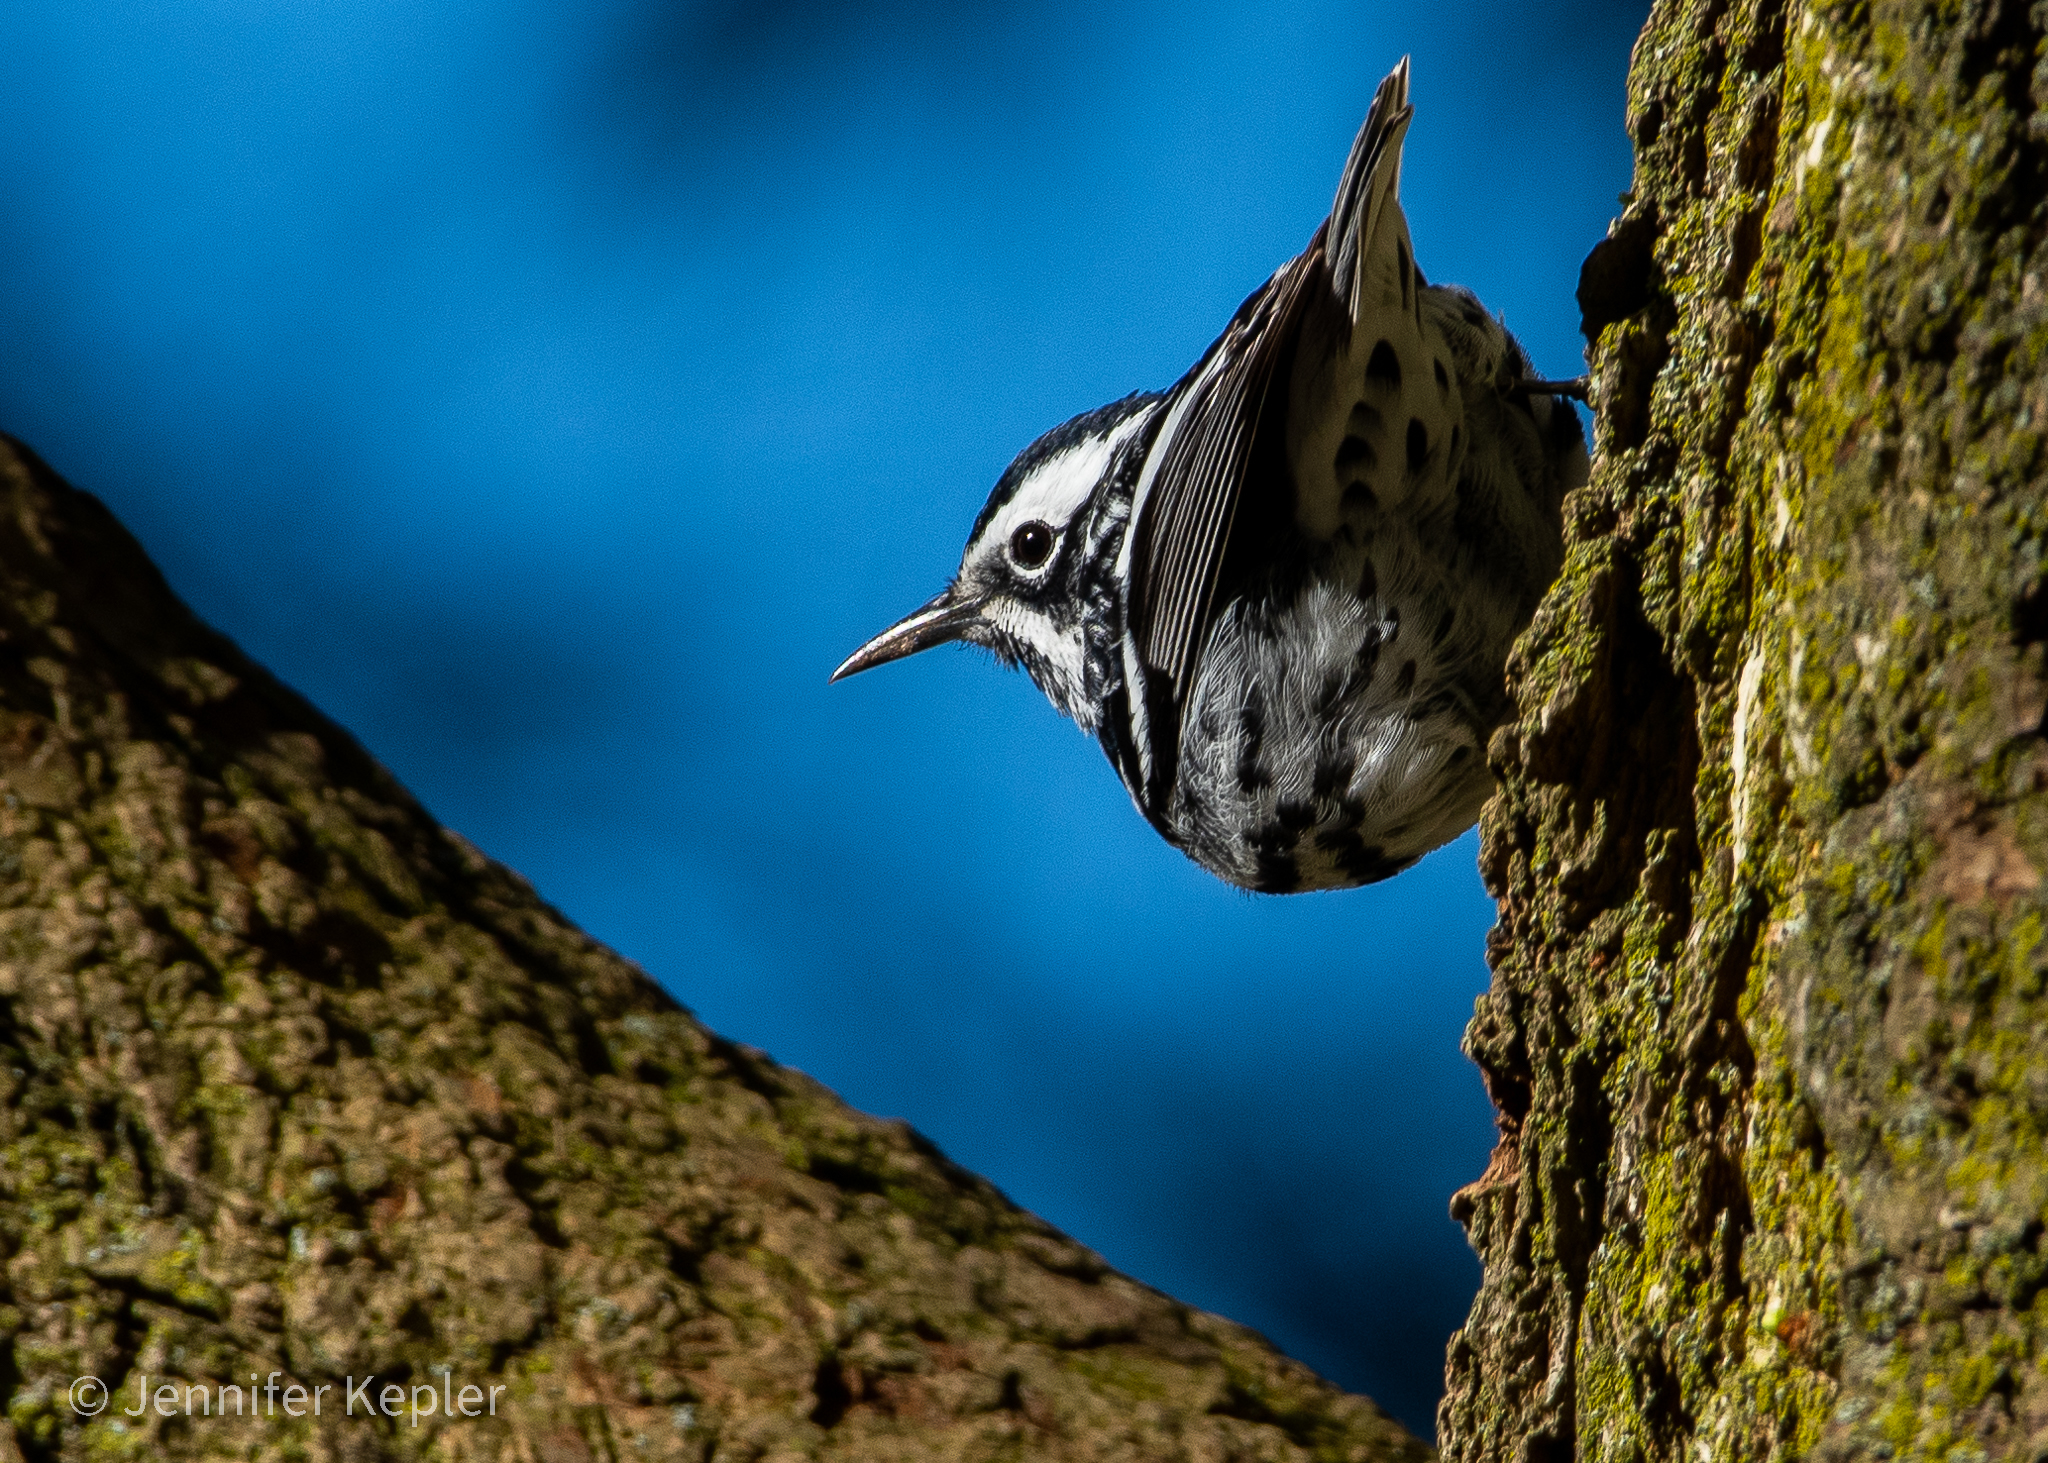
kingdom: Animalia
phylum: Chordata
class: Aves
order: Passeriformes
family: Parulidae
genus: Mniotilta
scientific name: Mniotilta varia
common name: Black-and-white warbler
